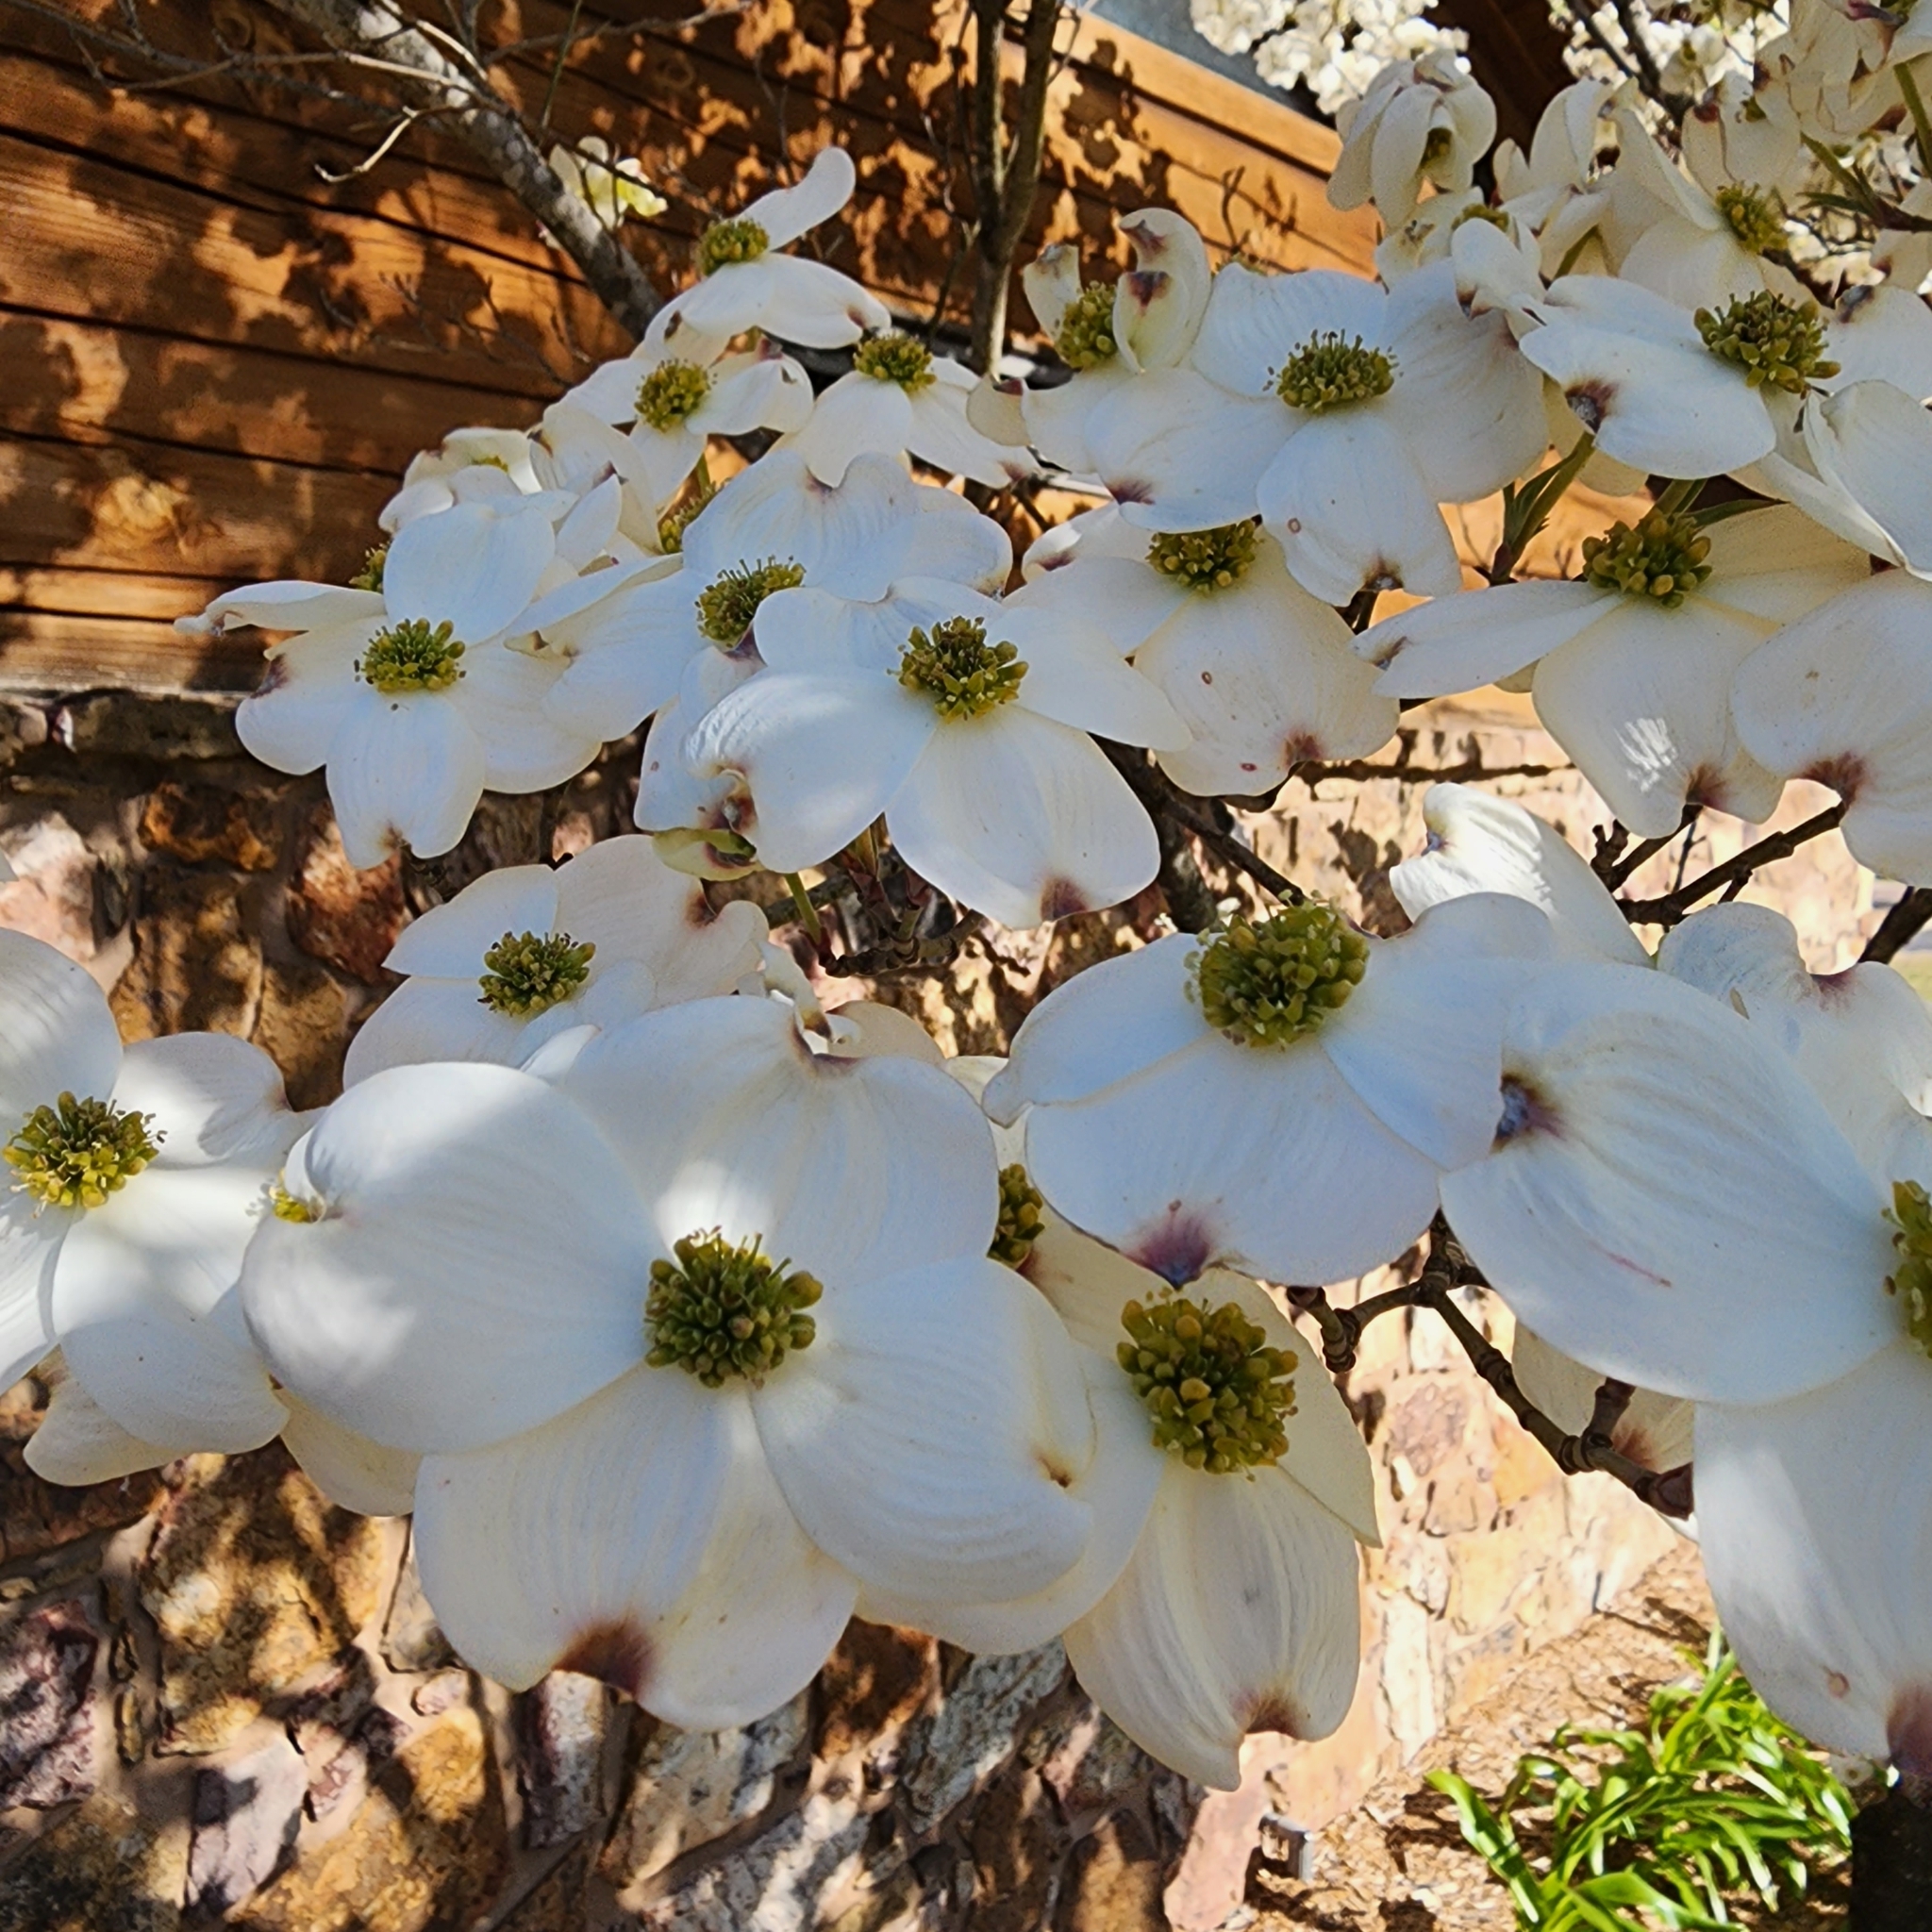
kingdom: Plantae
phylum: Tracheophyta
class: Magnoliopsida
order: Cornales
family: Cornaceae
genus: Cornus
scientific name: Cornus florida
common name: Flowering dogwood
